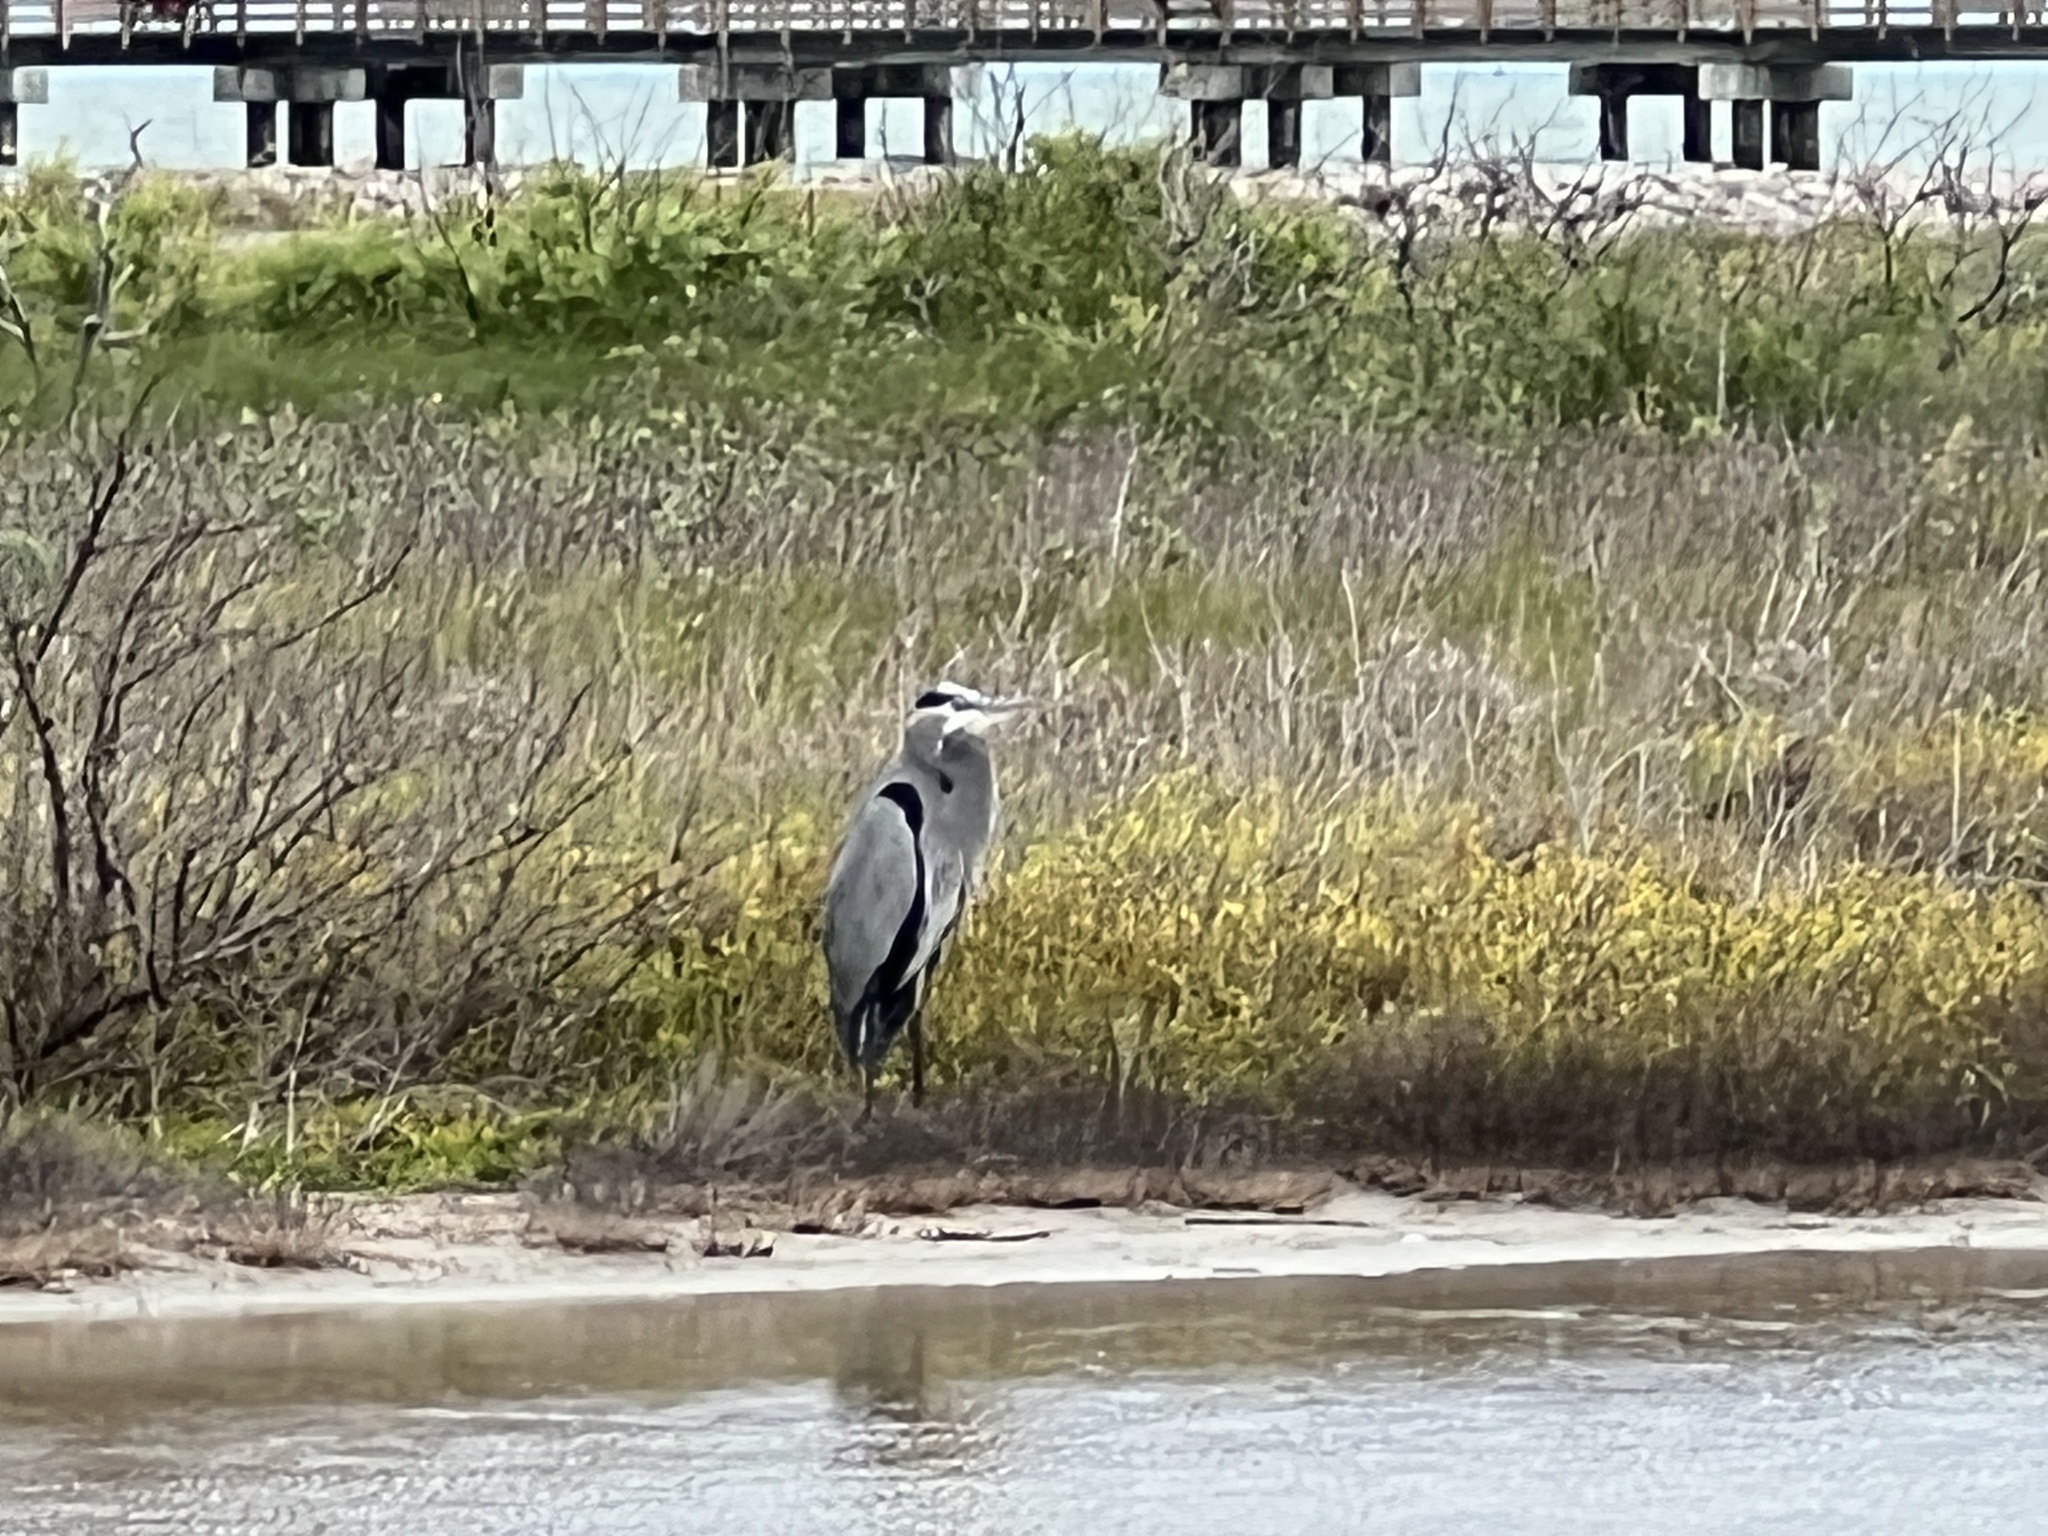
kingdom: Animalia
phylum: Chordata
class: Aves
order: Pelecaniformes
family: Ardeidae
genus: Ardea
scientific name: Ardea herodias
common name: Great blue heron
